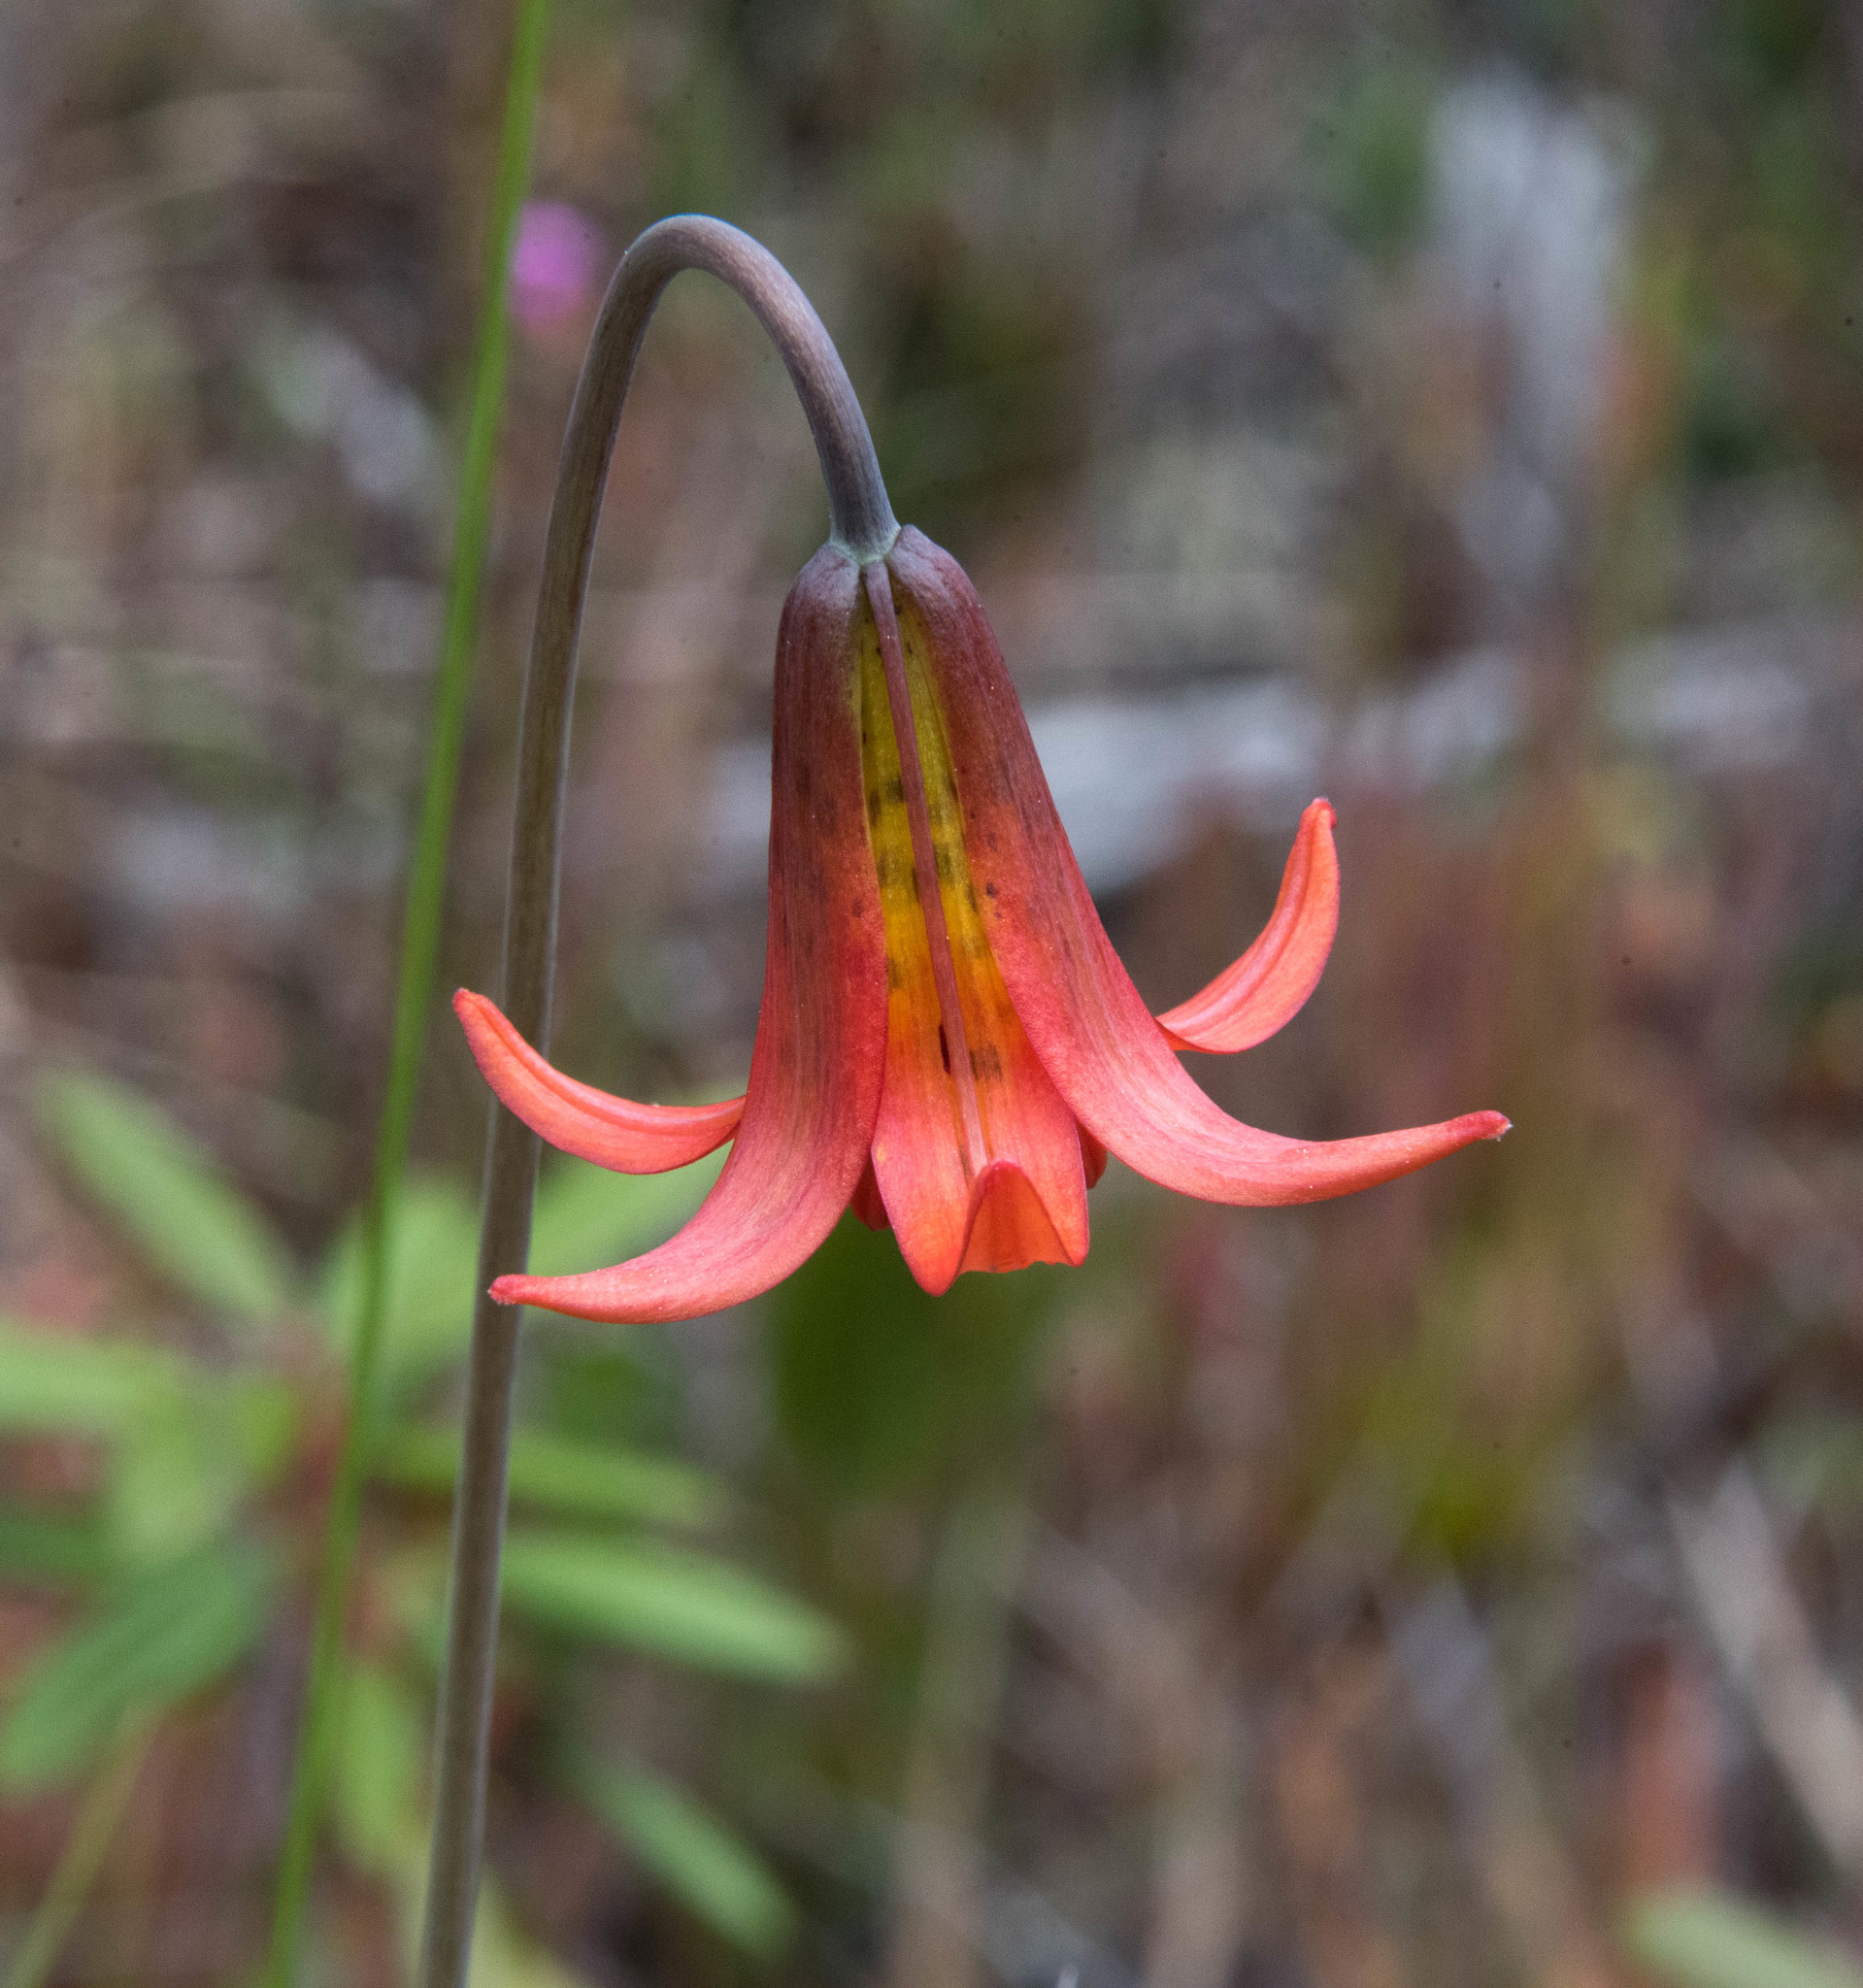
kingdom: Plantae
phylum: Tracheophyta
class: Liliopsida
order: Liliales
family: Liliaceae
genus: Lilium
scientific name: Lilium maritimum
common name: Coastal lily
